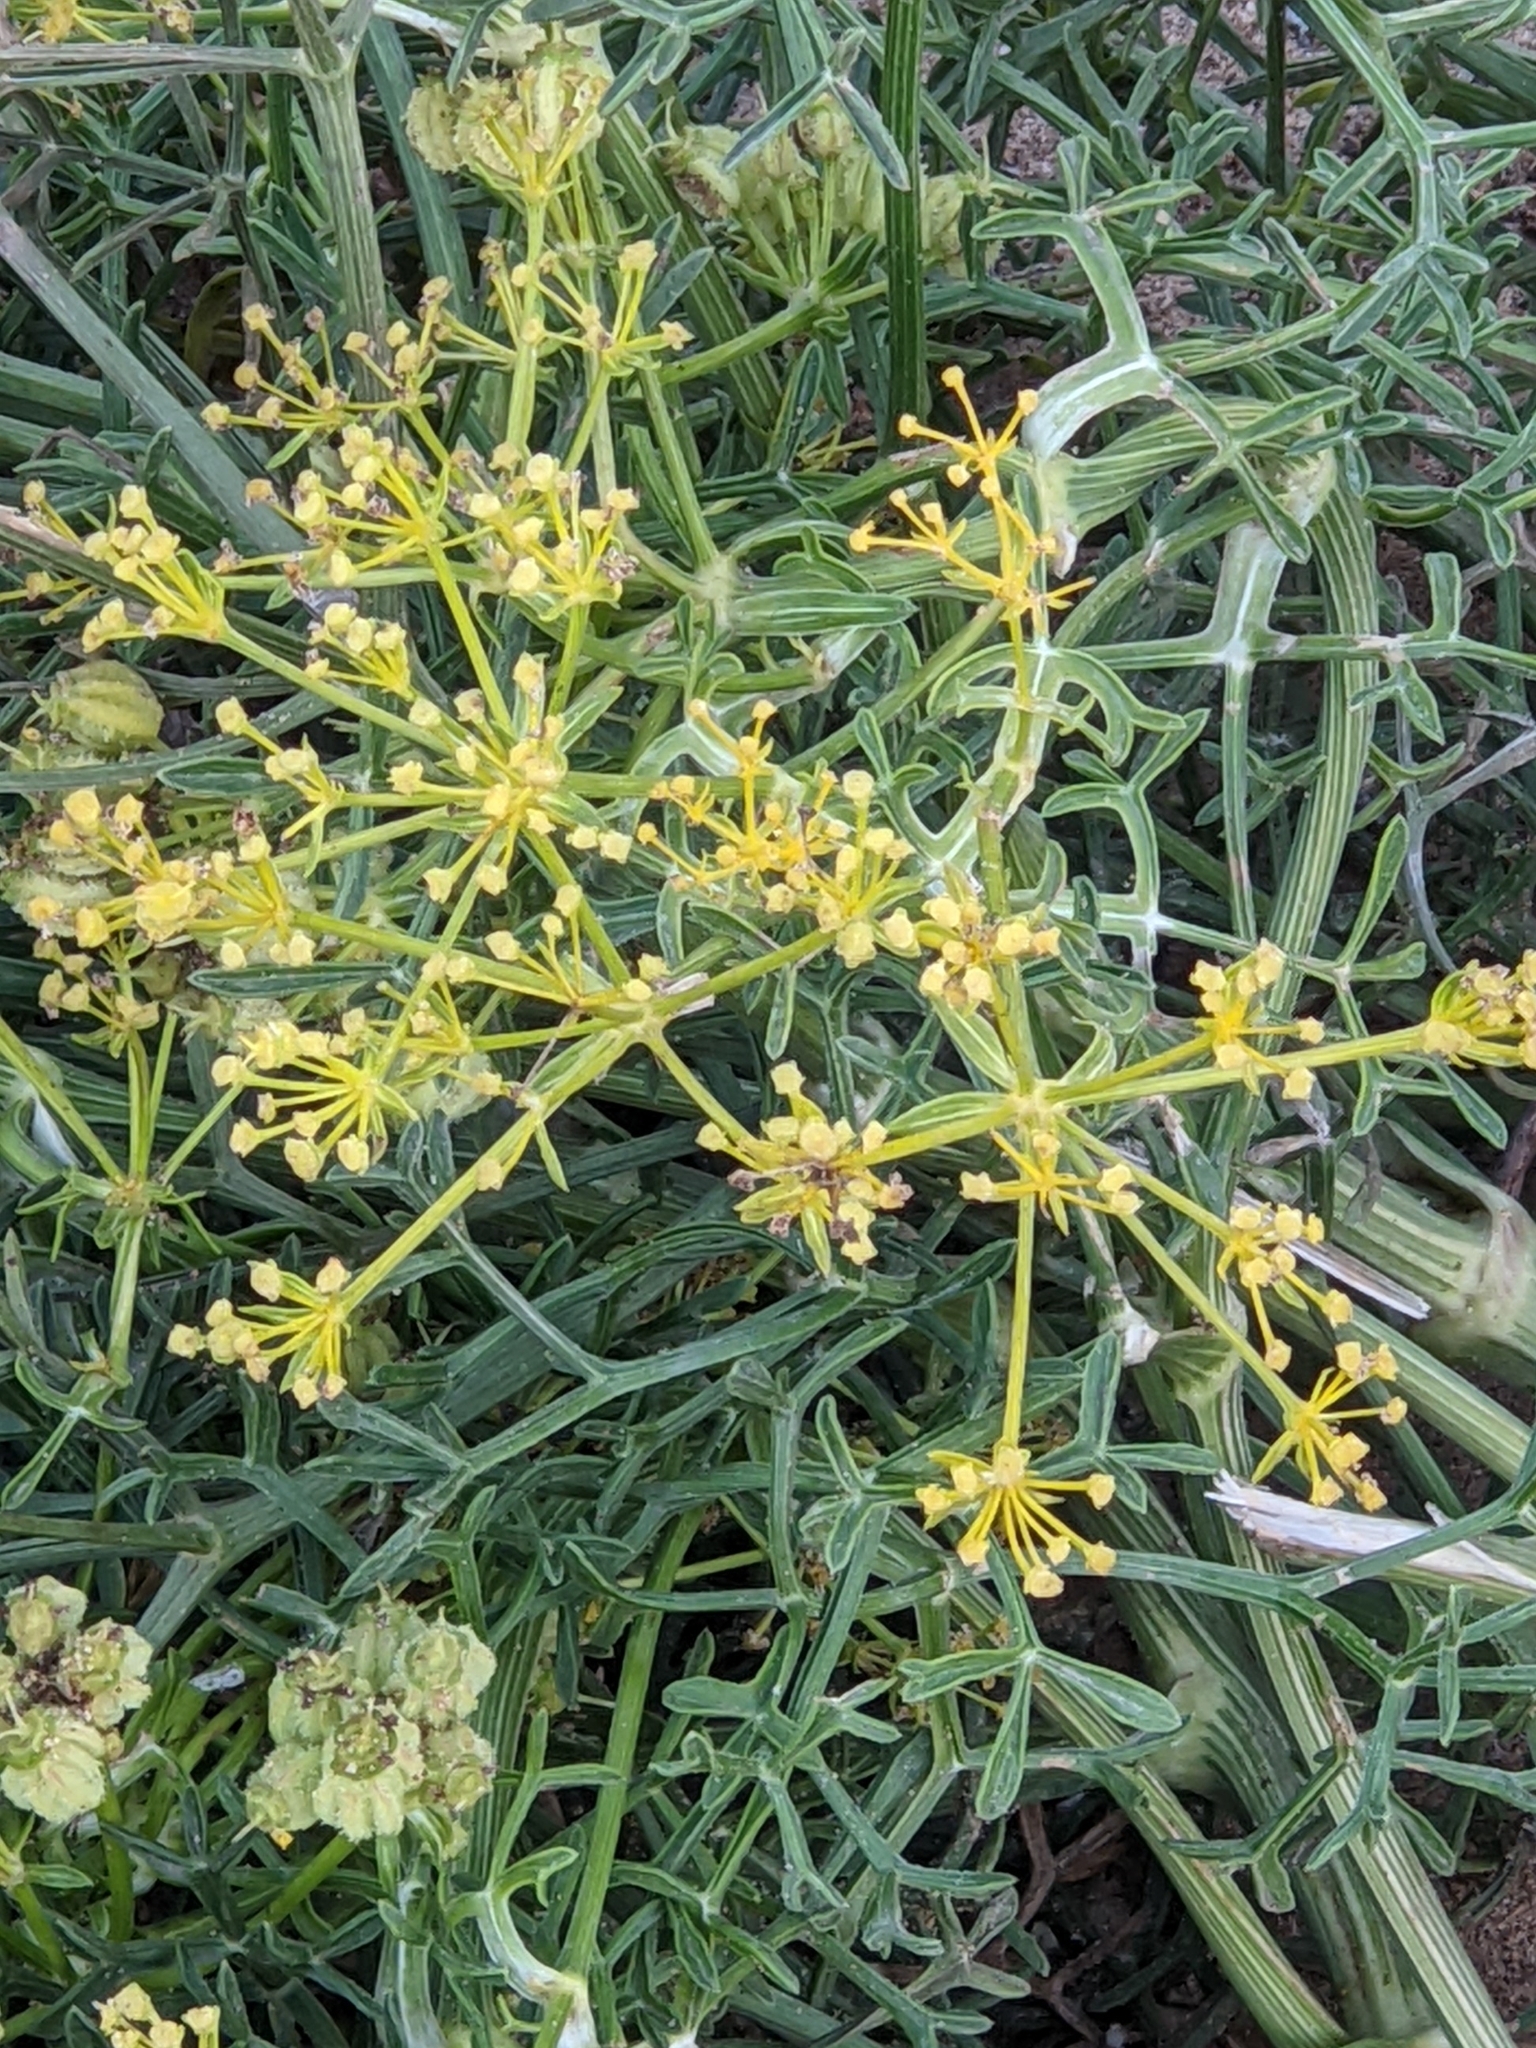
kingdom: Plantae
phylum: Tracheophyta
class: Magnoliopsida
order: Apiales
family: Apiaceae
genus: Crithmum
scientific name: Crithmum maritimum
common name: Rock samphire
